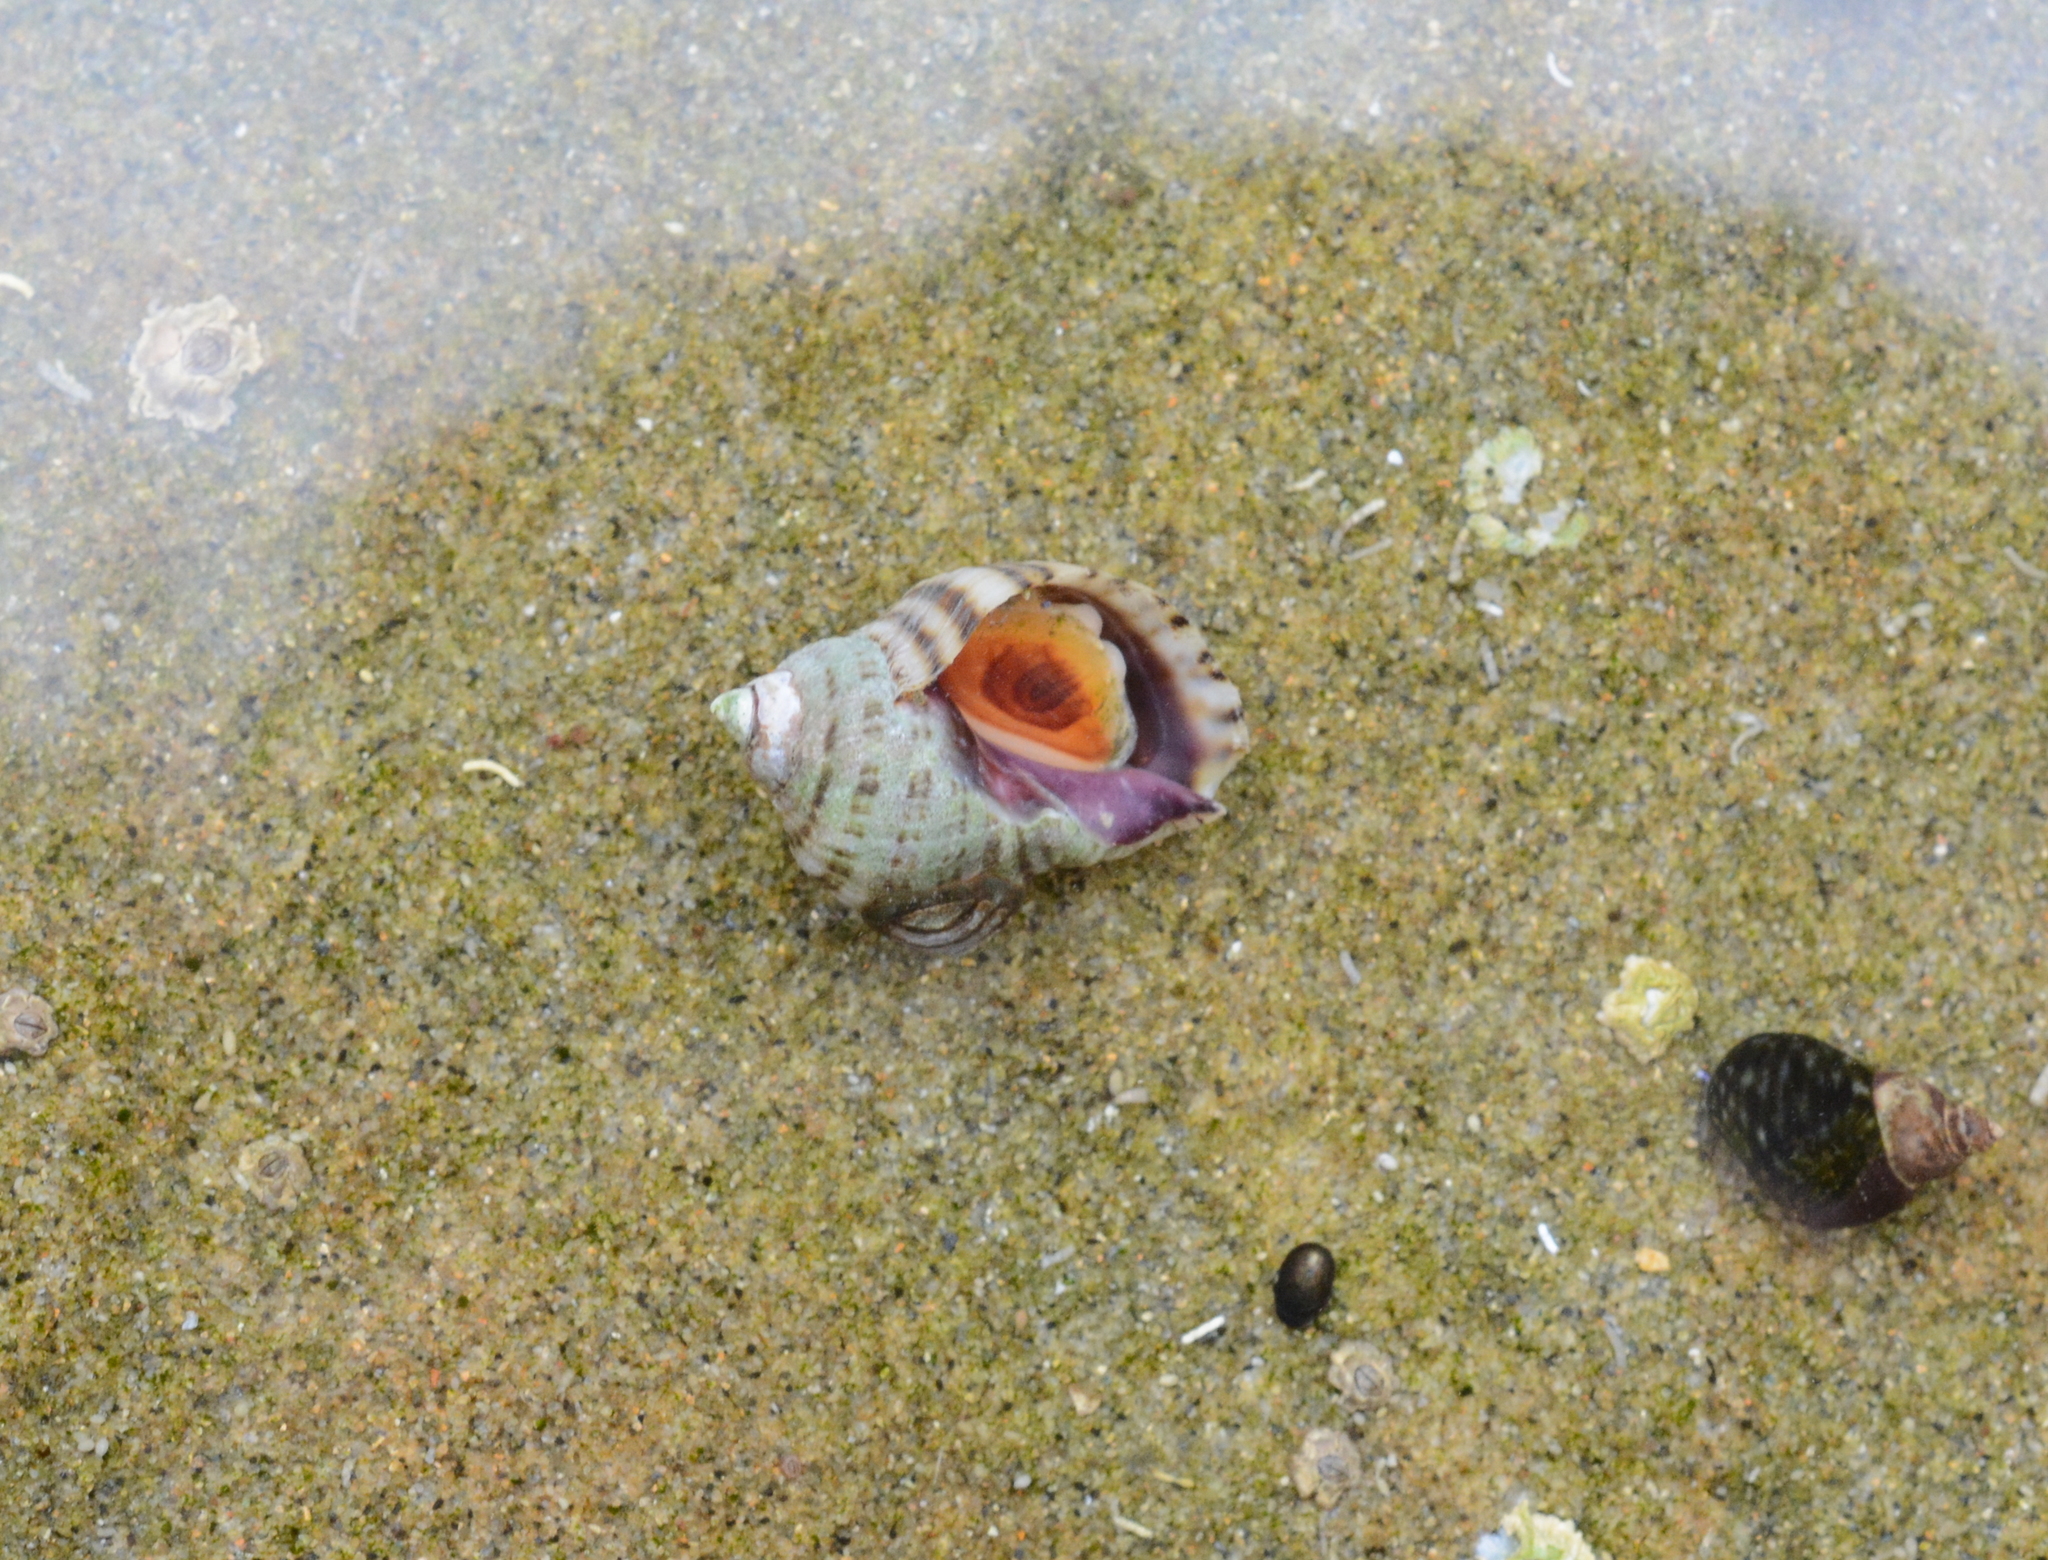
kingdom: Animalia
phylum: Mollusca
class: Gastropoda
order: Neogastropoda
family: Muricidae
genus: Nucella
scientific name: Nucella ostrina
